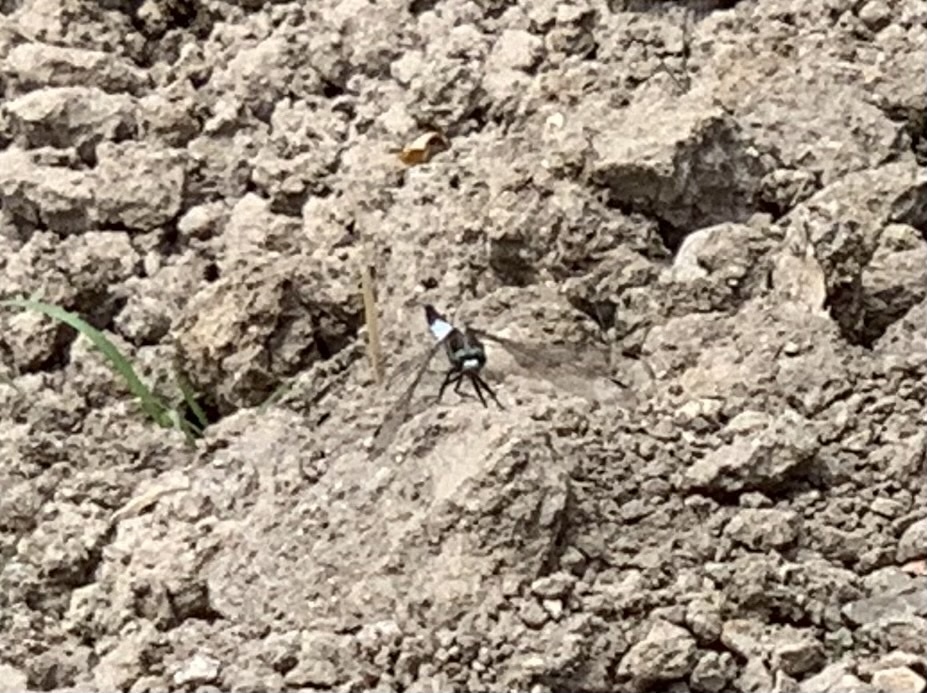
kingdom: Animalia
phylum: Arthropoda
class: Insecta
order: Odonata
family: Libellulidae
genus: Orthetrum
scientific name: Orthetrum albistylum
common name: White-tailed skimmer
